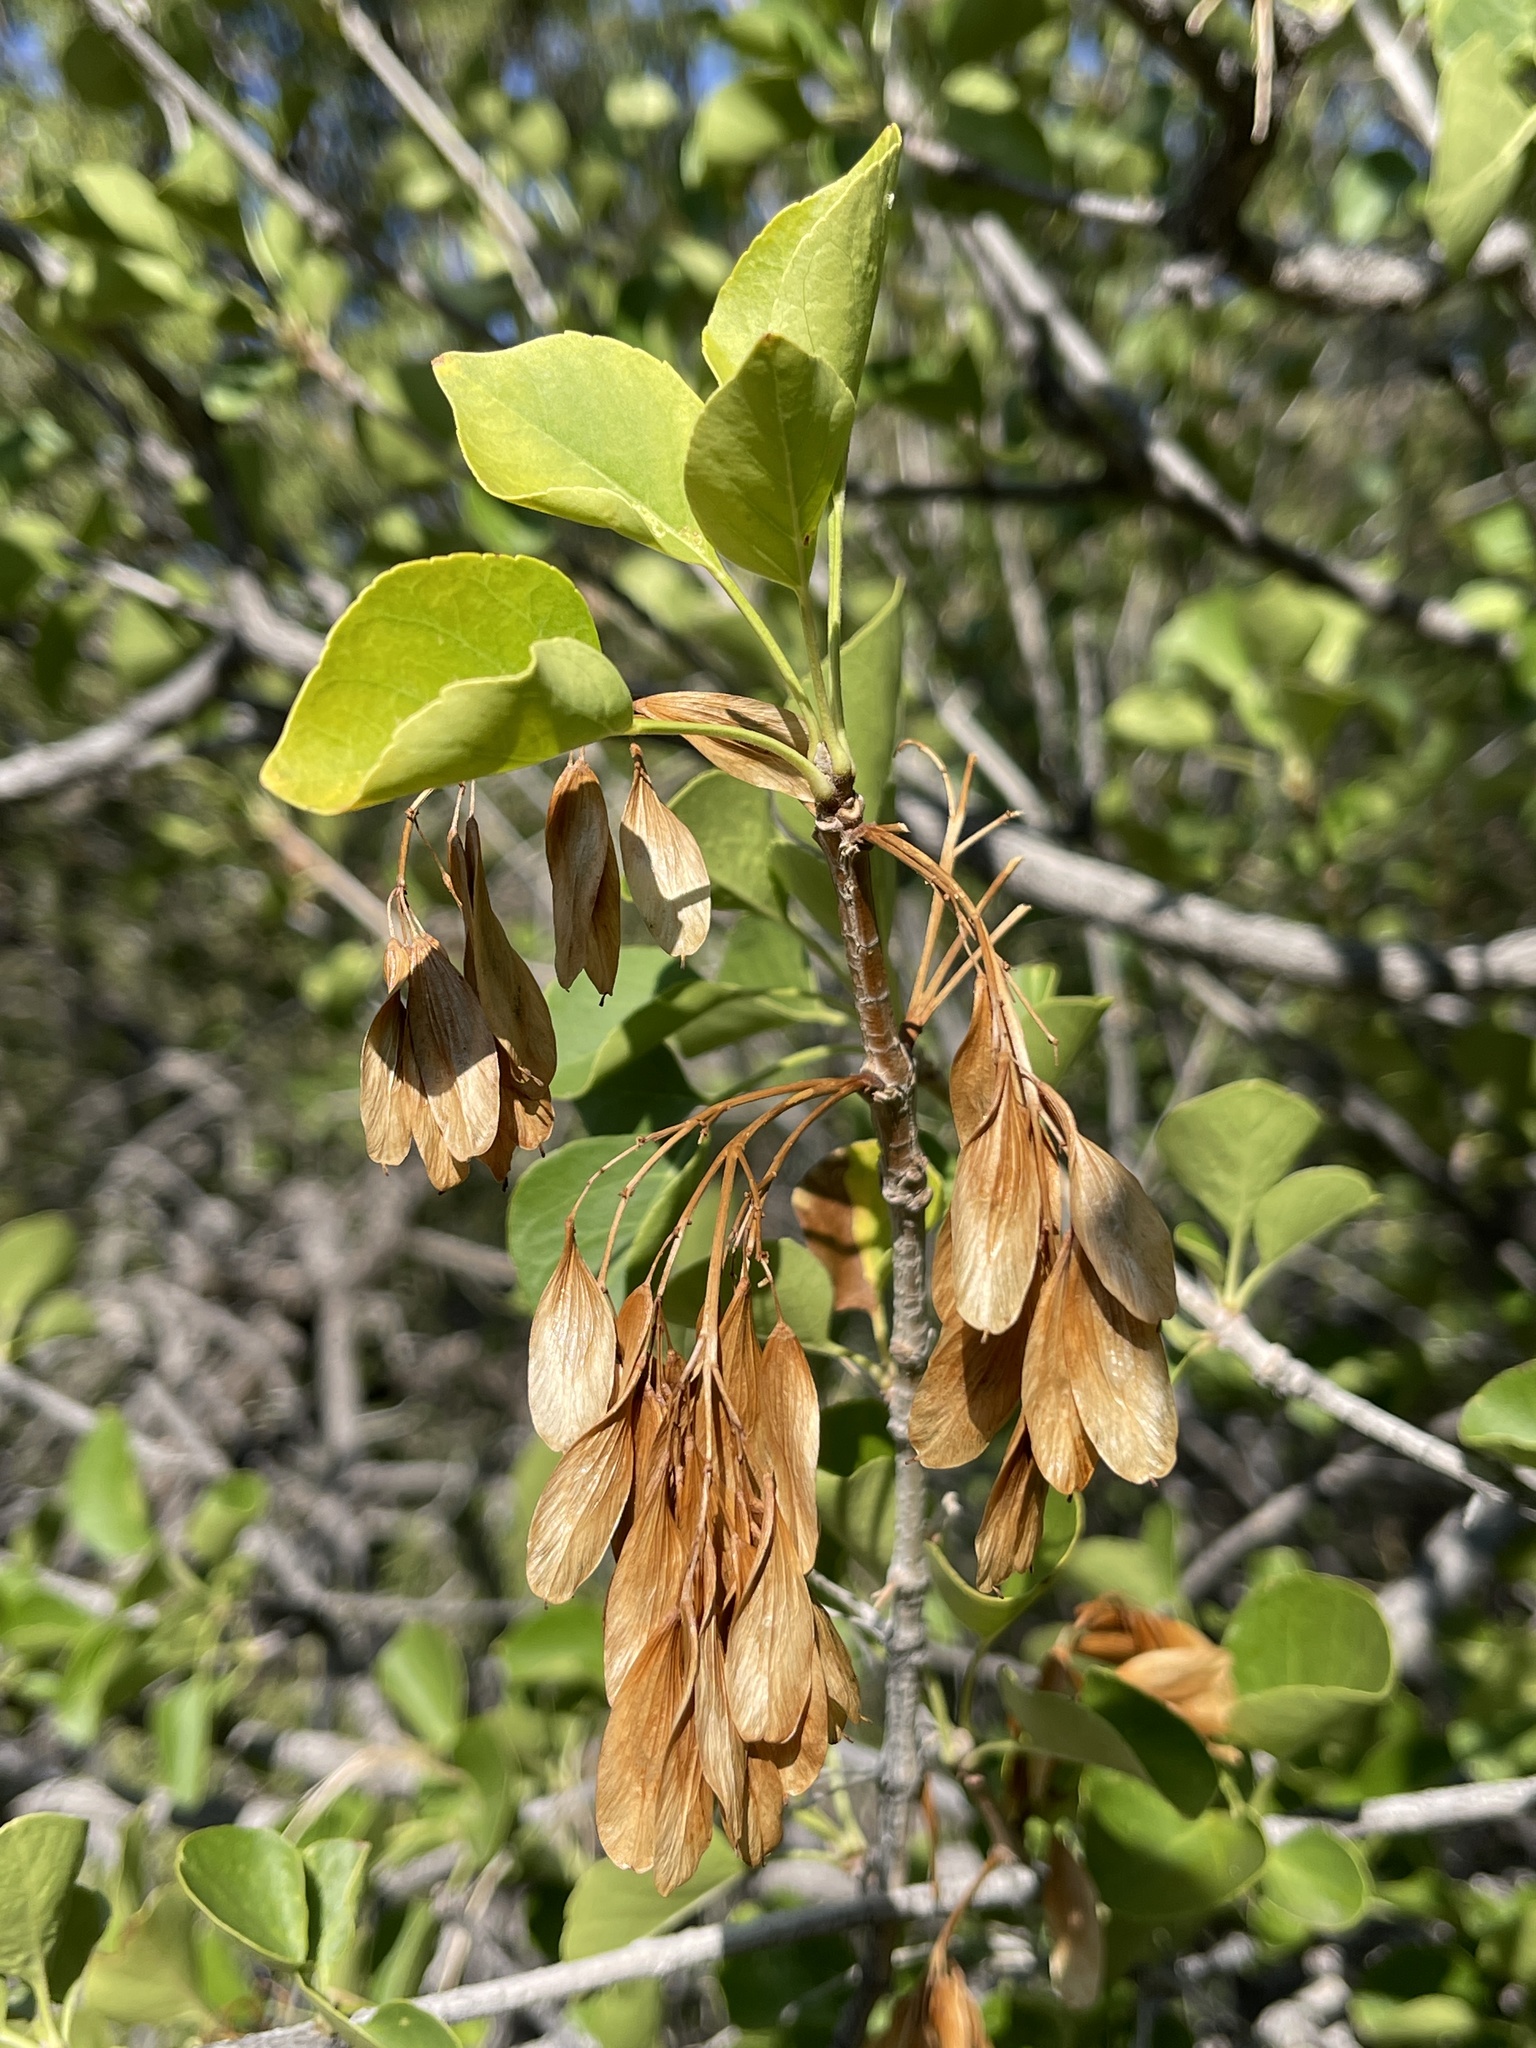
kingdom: Plantae
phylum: Tracheophyta
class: Magnoliopsida
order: Lamiales
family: Oleaceae
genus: Fraxinus
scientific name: Fraxinus anomala
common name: Utah ash
